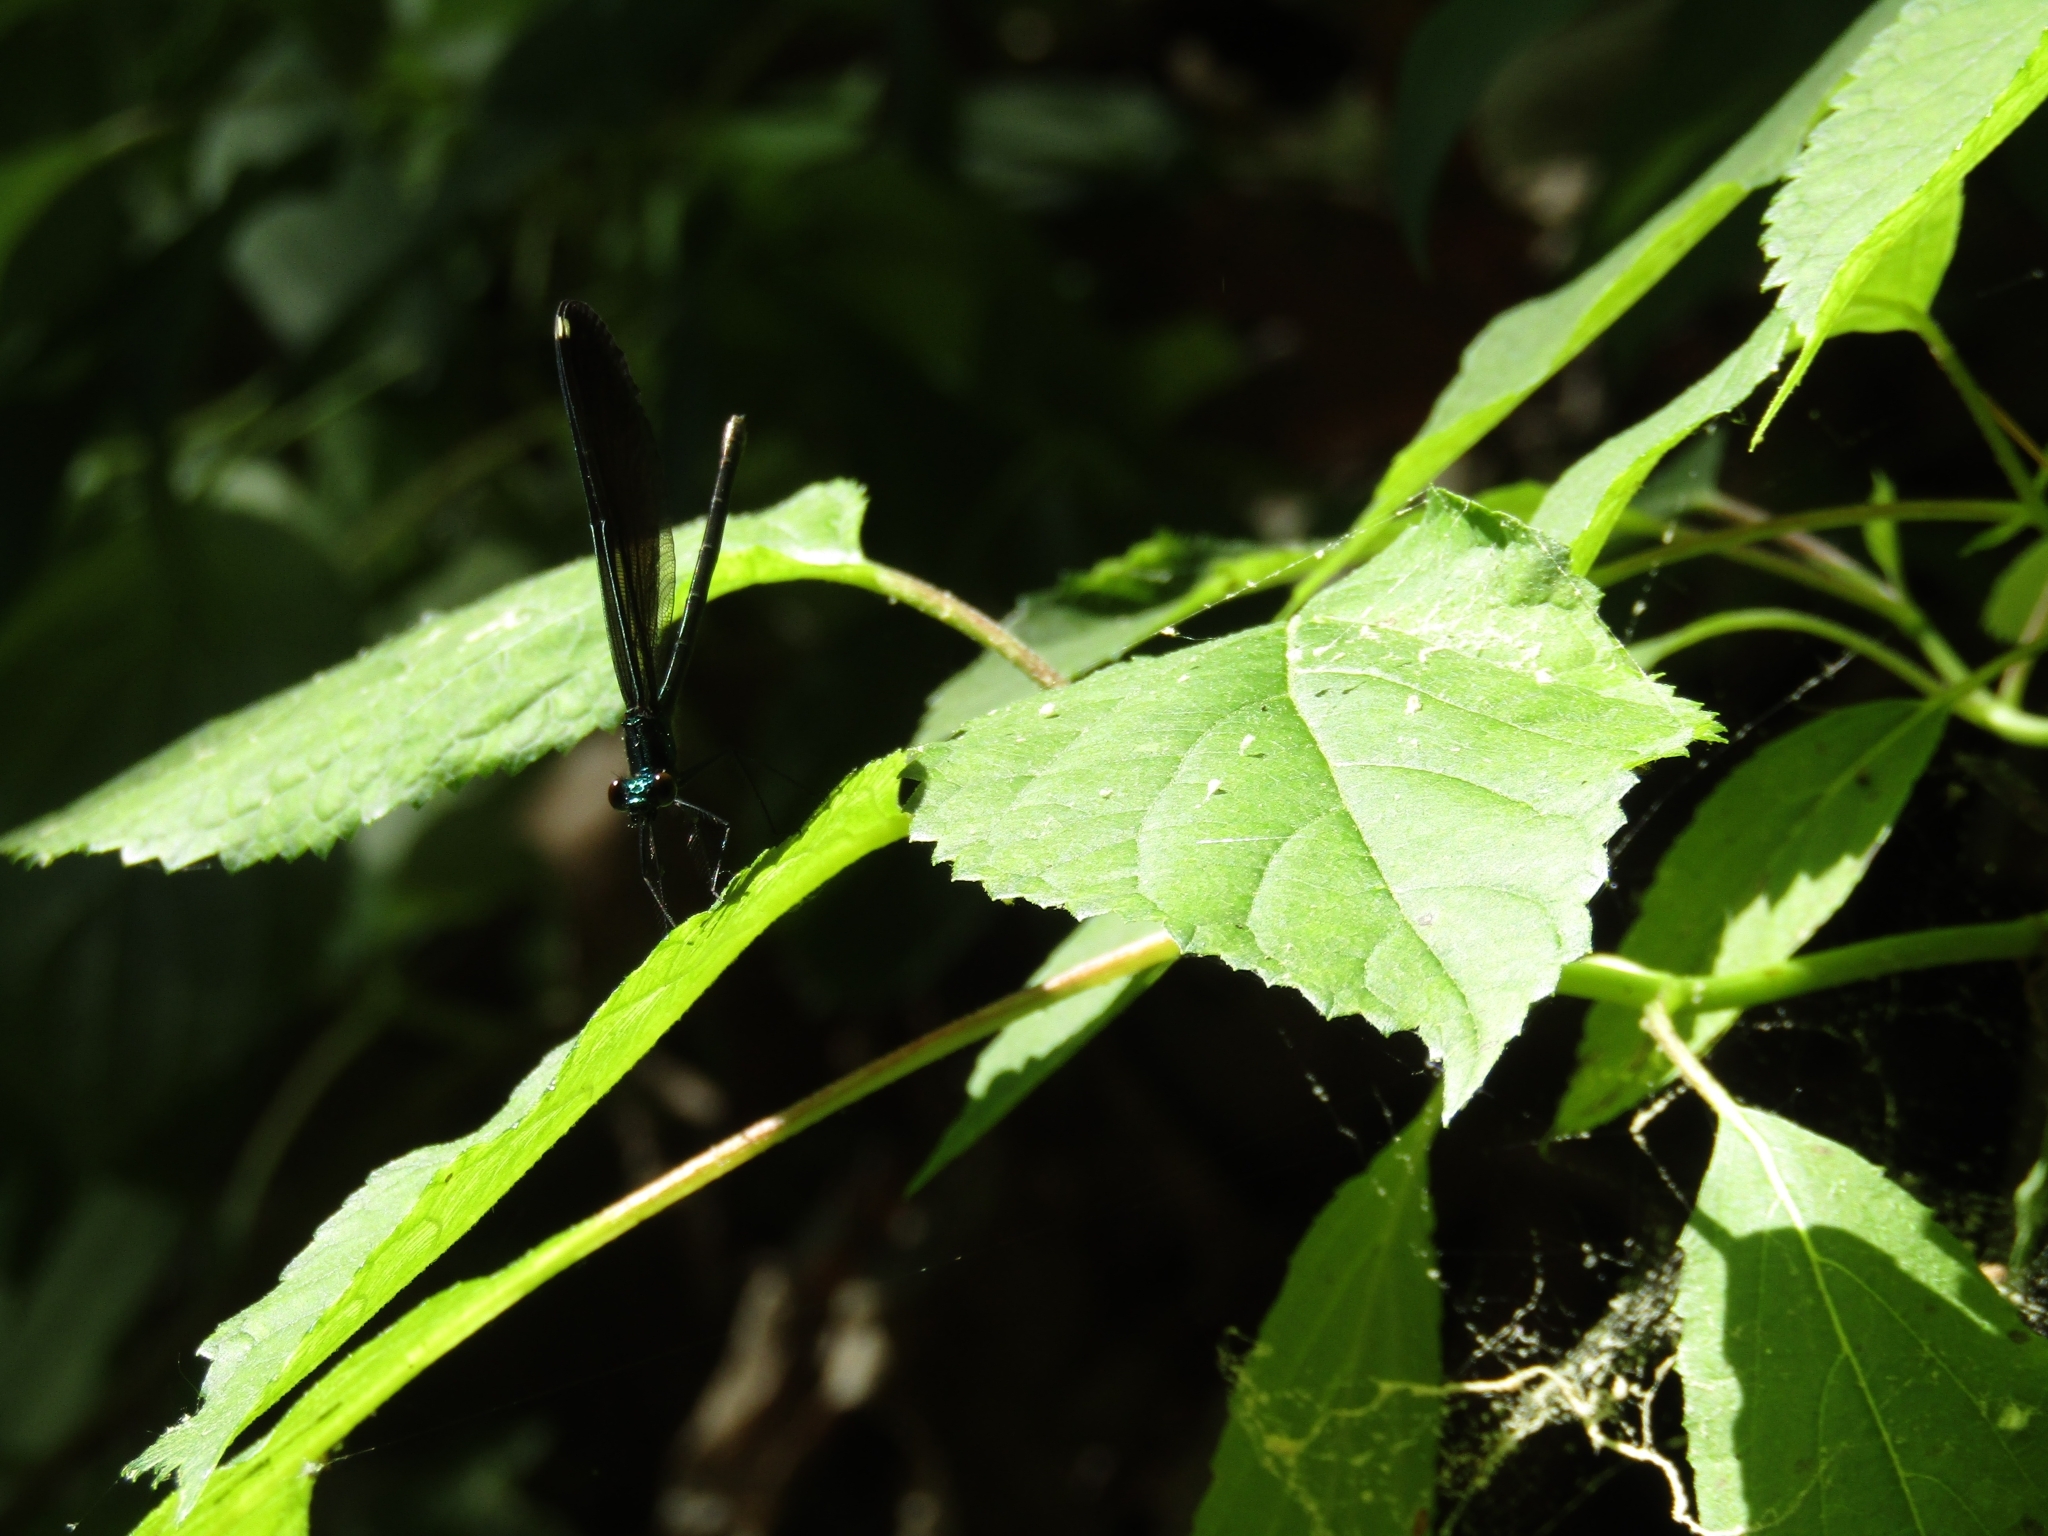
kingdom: Animalia
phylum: Arthropoda
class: Insecta
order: Odonata
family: Calopterygidae
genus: Calopteryx
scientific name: Calopteryx maculata
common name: Ebony jewelwing
